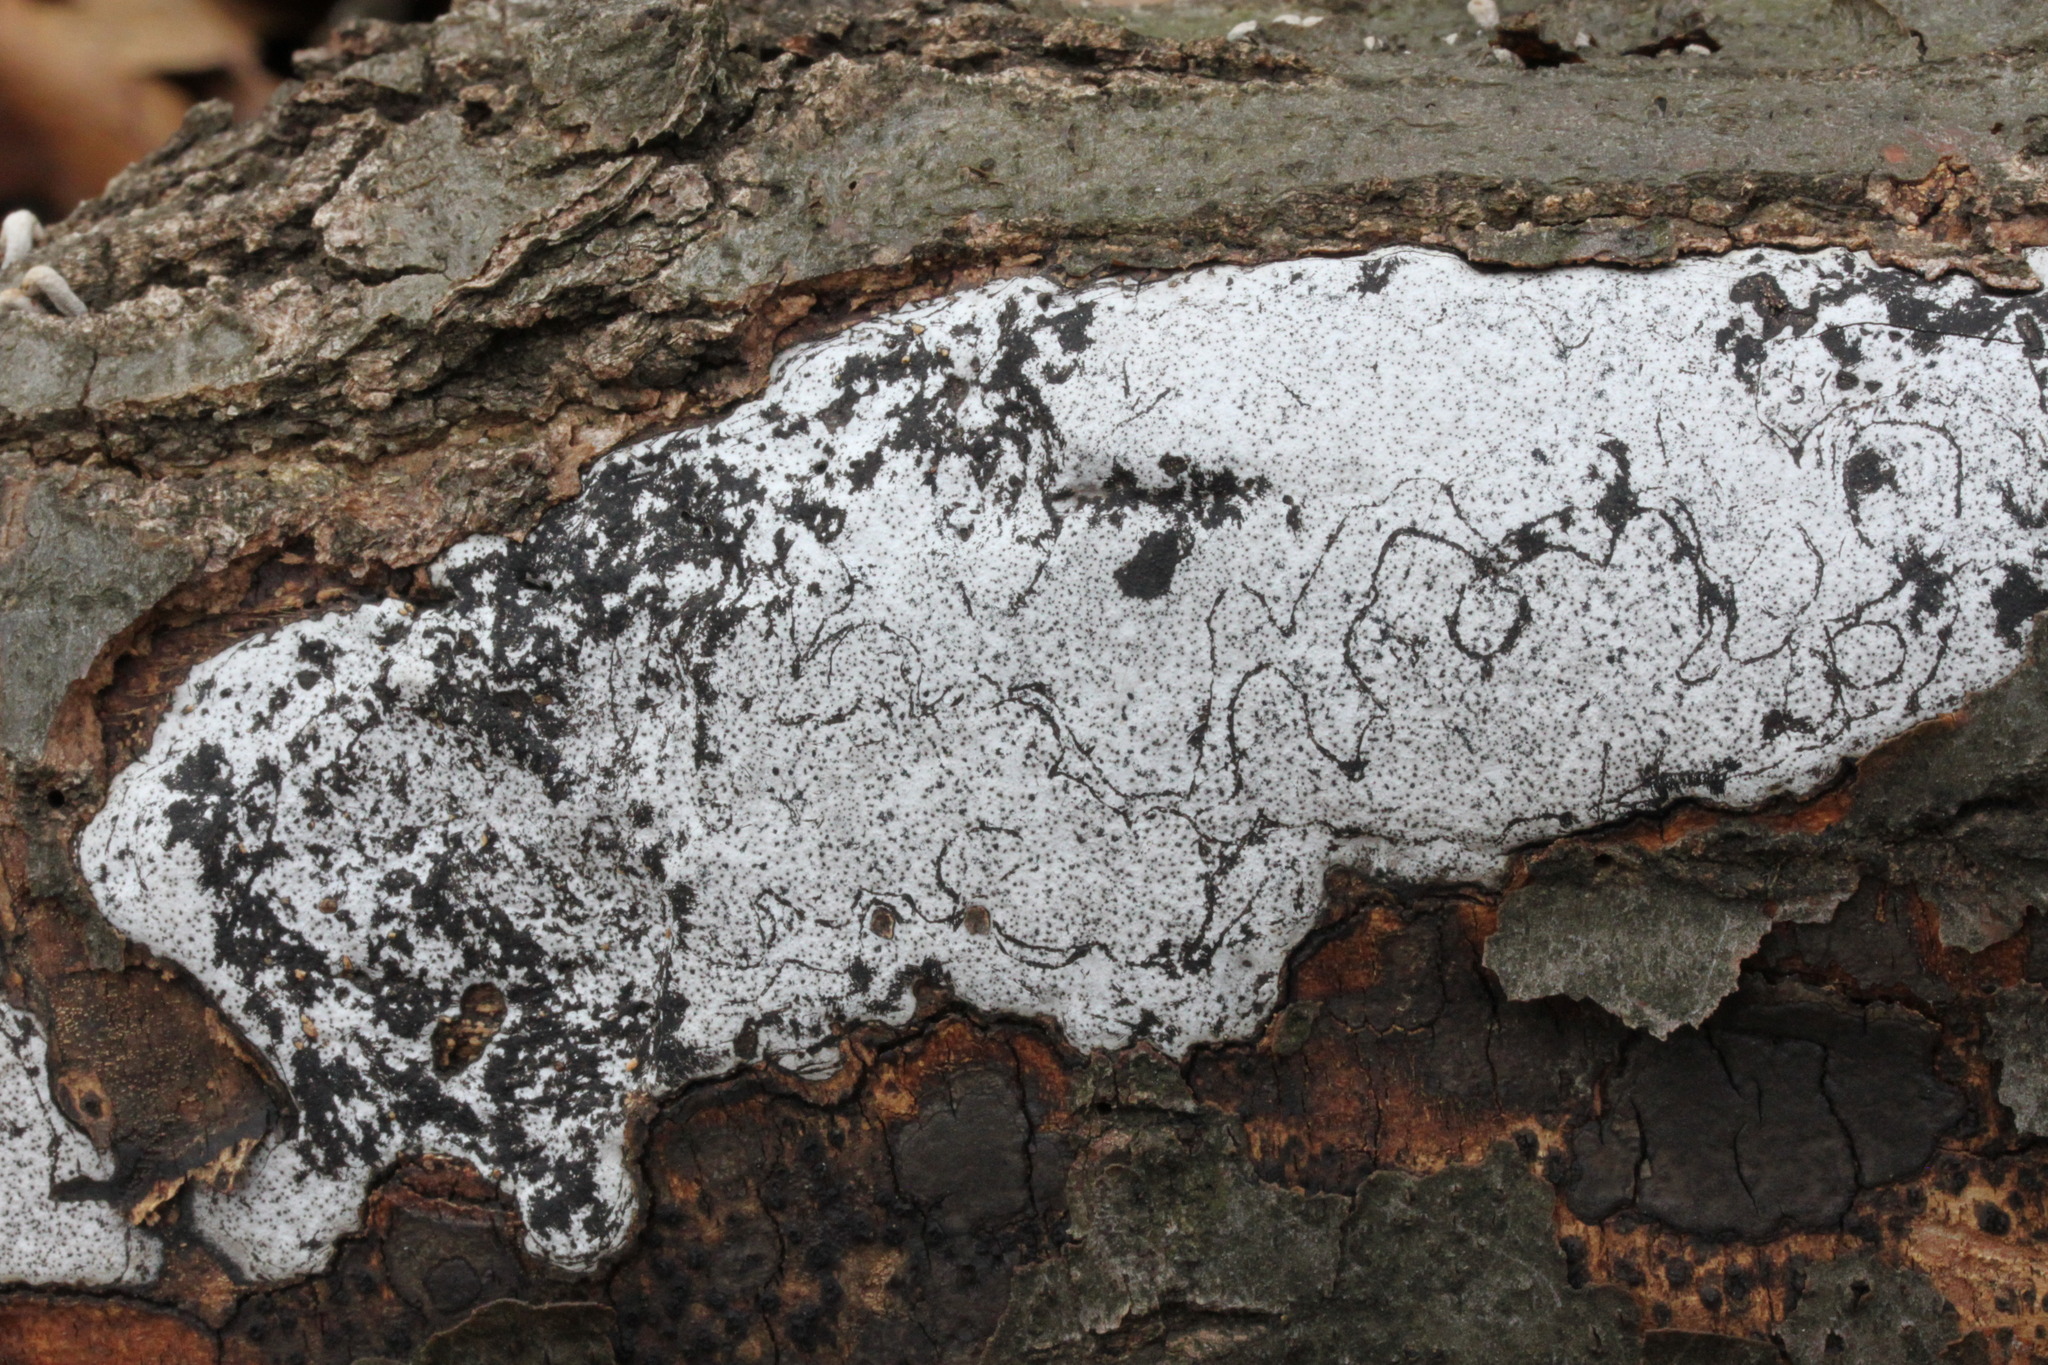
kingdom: Fungi
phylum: Ascomycota
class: Sordariomycetes
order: Xylariales
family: Graphostromataceae
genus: Biscogniauxia
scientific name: Biscogniauxia atropunctata
